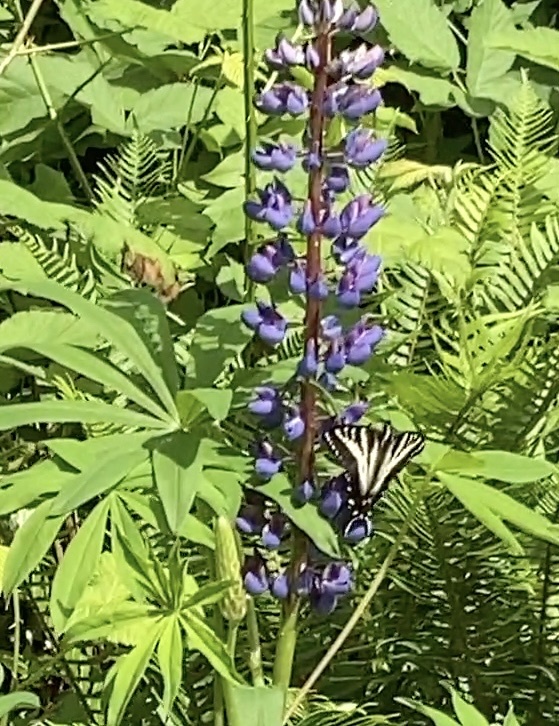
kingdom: Animalia
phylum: Arthropoda
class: Insecta
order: Lepidoptera
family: Papilionidae
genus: Papilio
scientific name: Papilio eurymedon
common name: Pale tiger swallowtail
